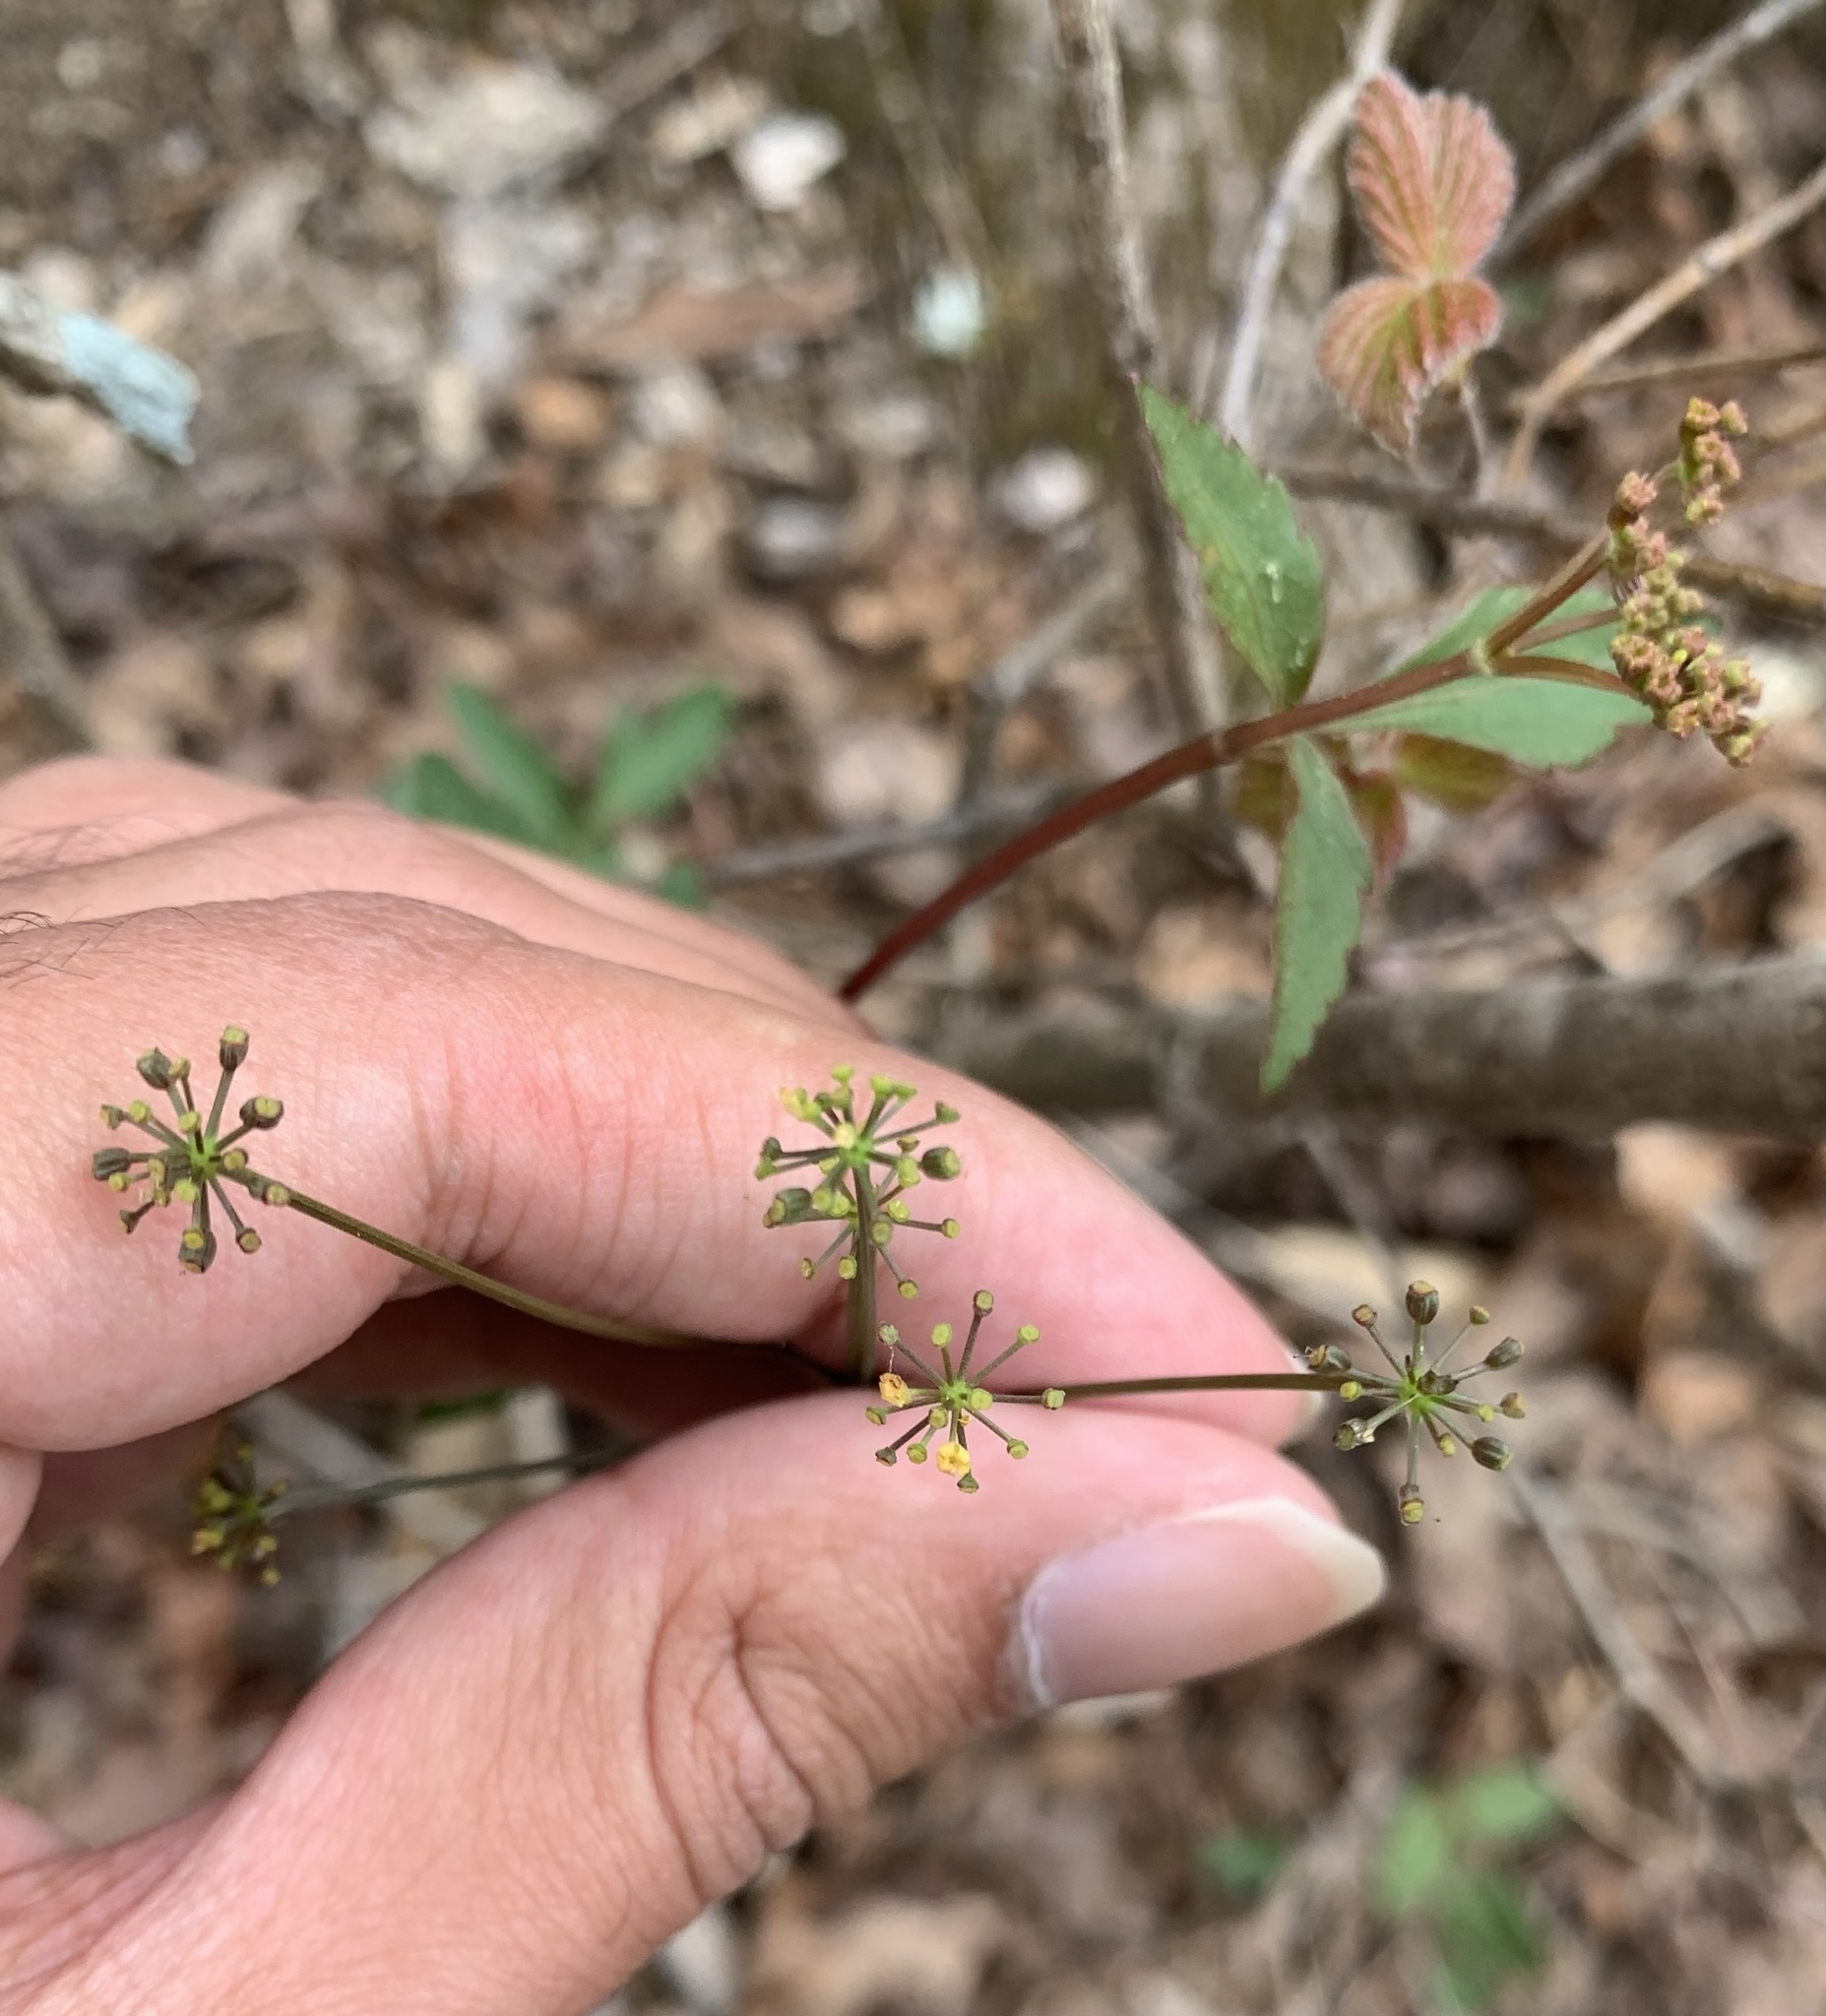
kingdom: Plantae
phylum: Tracheophyta
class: Magnoliopsida
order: Apiales
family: Apiaceae
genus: Zizia
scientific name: Zizia trifoliata
